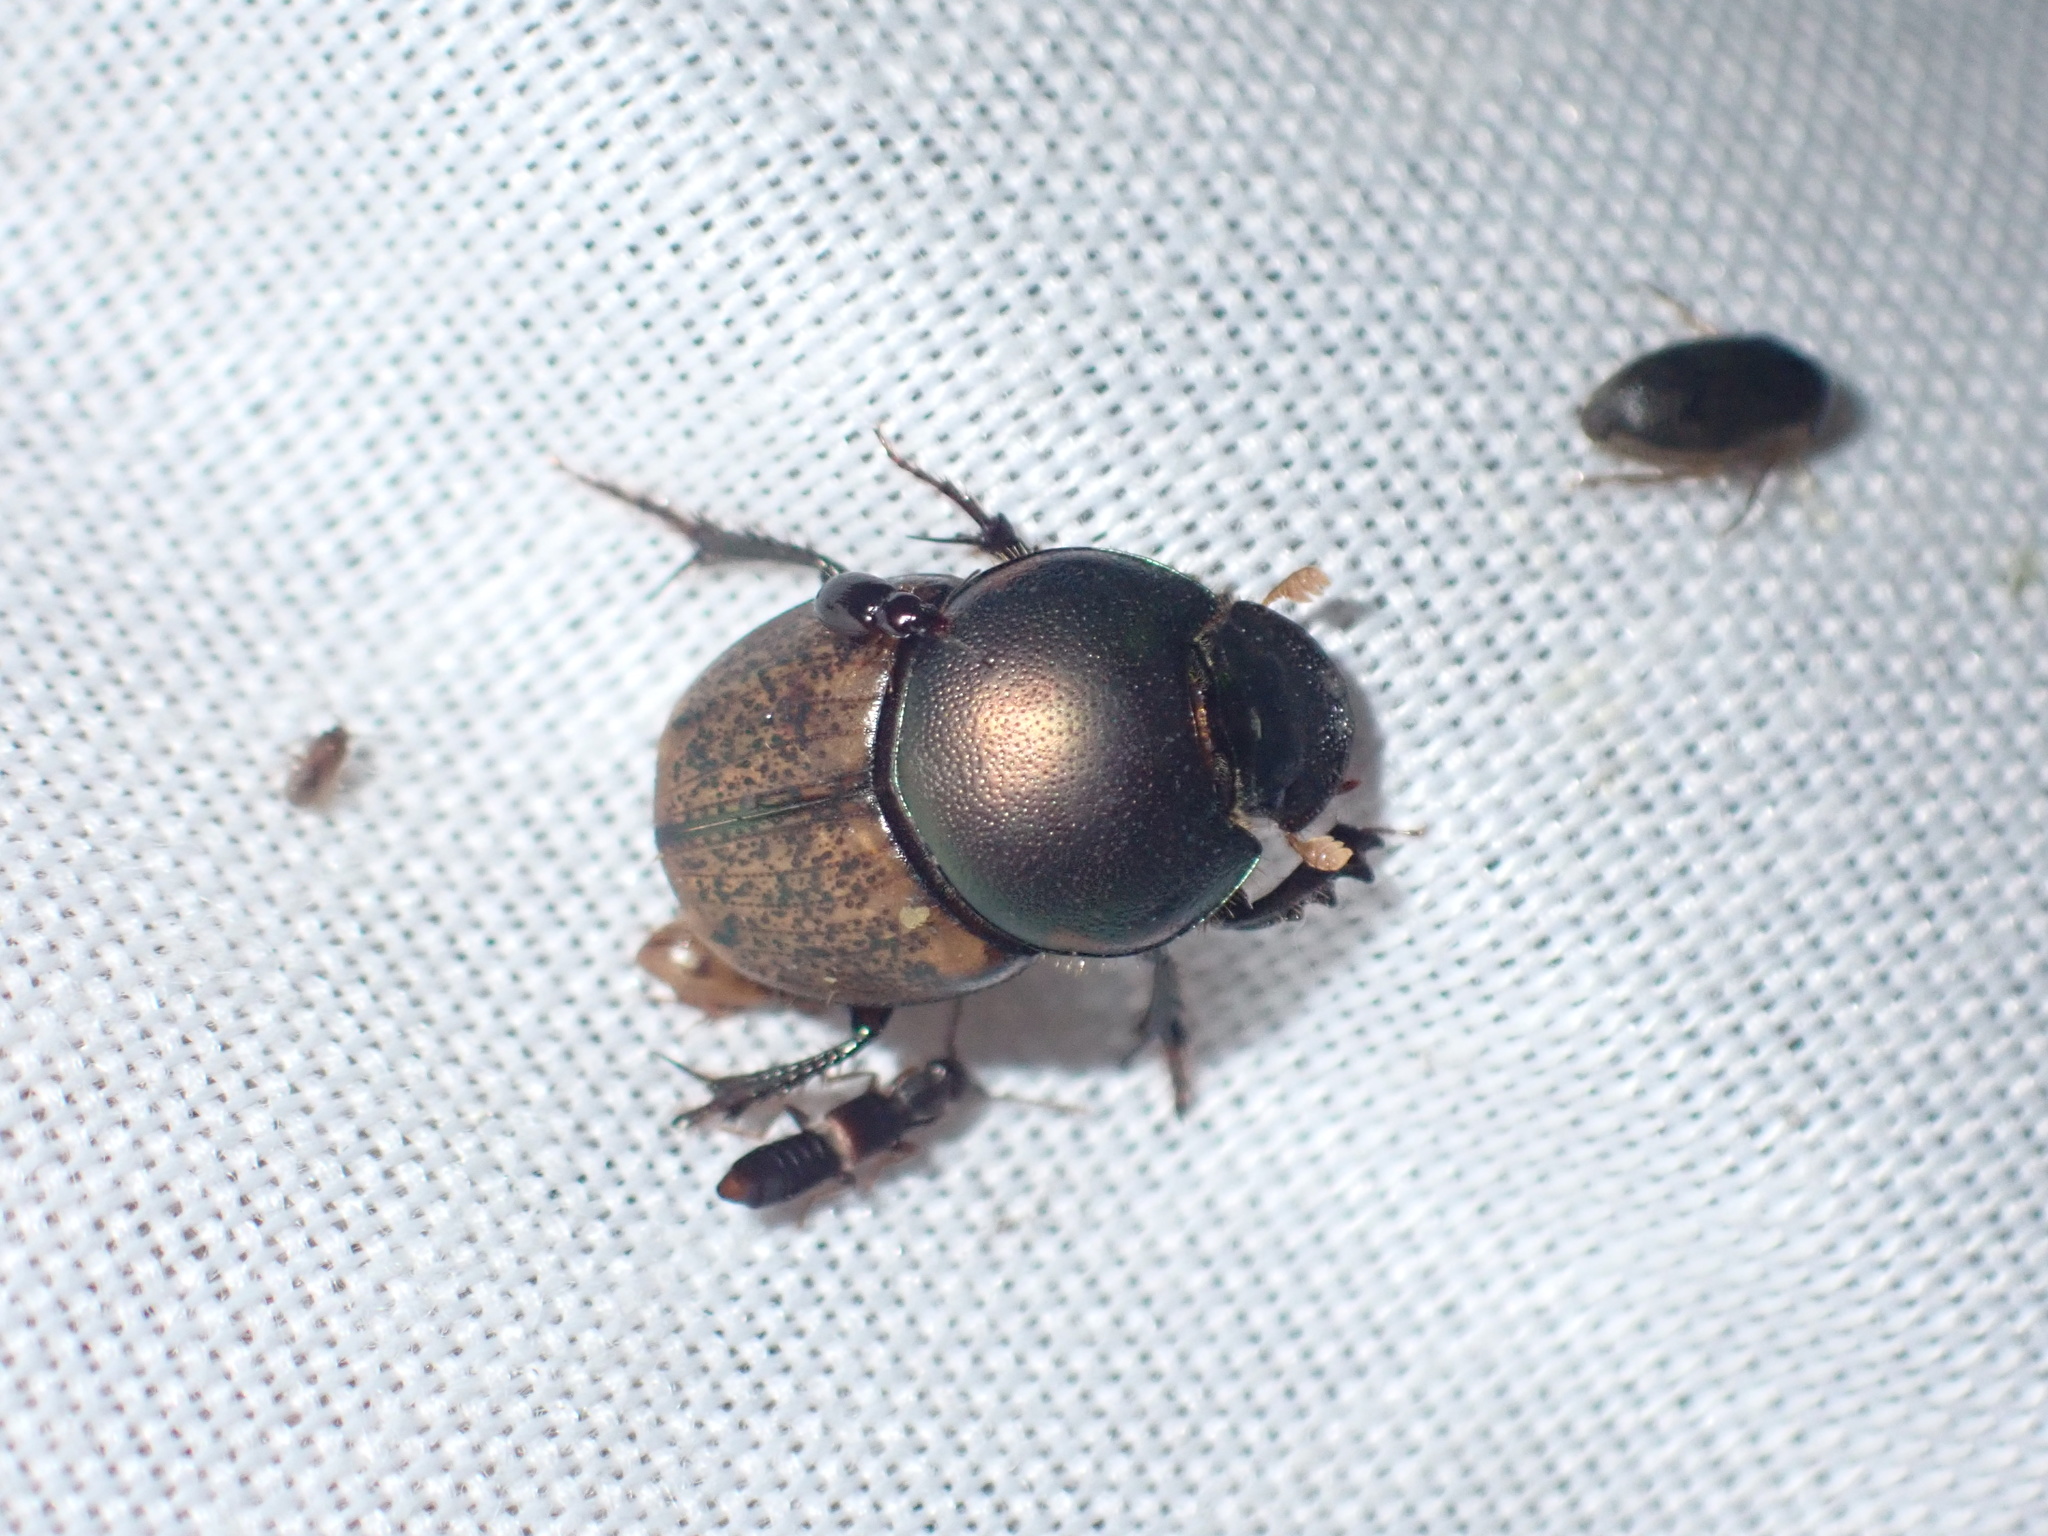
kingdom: Animalia
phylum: Arthropoda
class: Insecta
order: Coleoptera
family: Scarabaeidae
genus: Onthophagus
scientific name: Onthophagus plebejus
